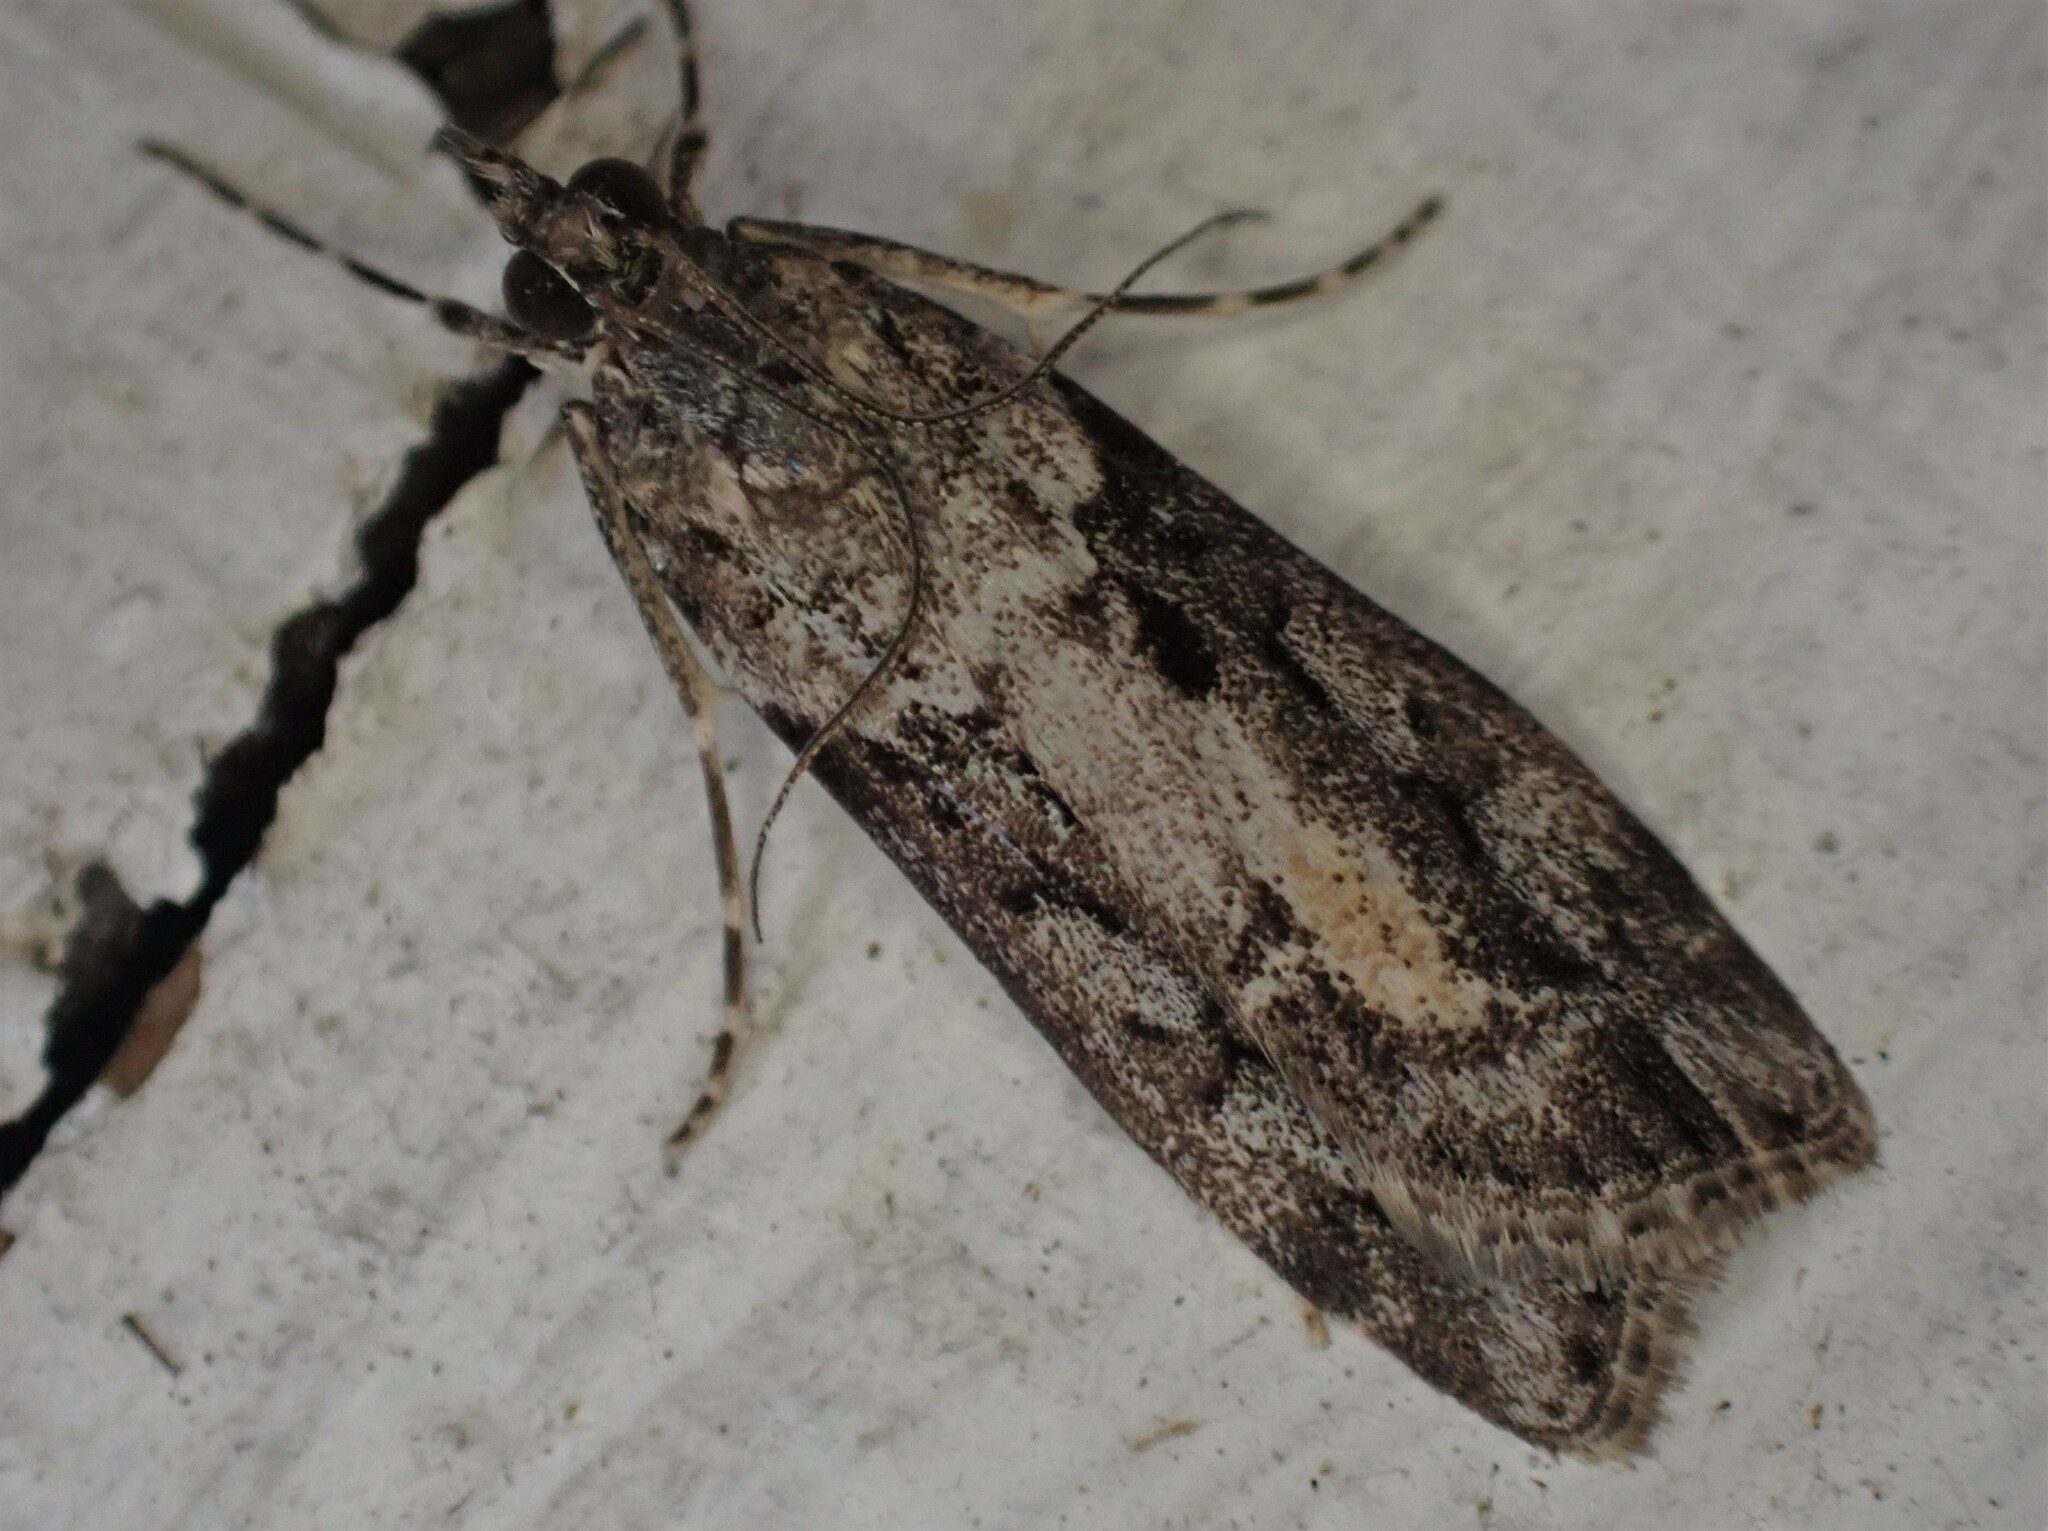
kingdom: Animalia
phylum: Arthropoda
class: Insecta
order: Lepidoptera
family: Crambidae
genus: Eudonia
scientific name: Eudonia submarginalis
